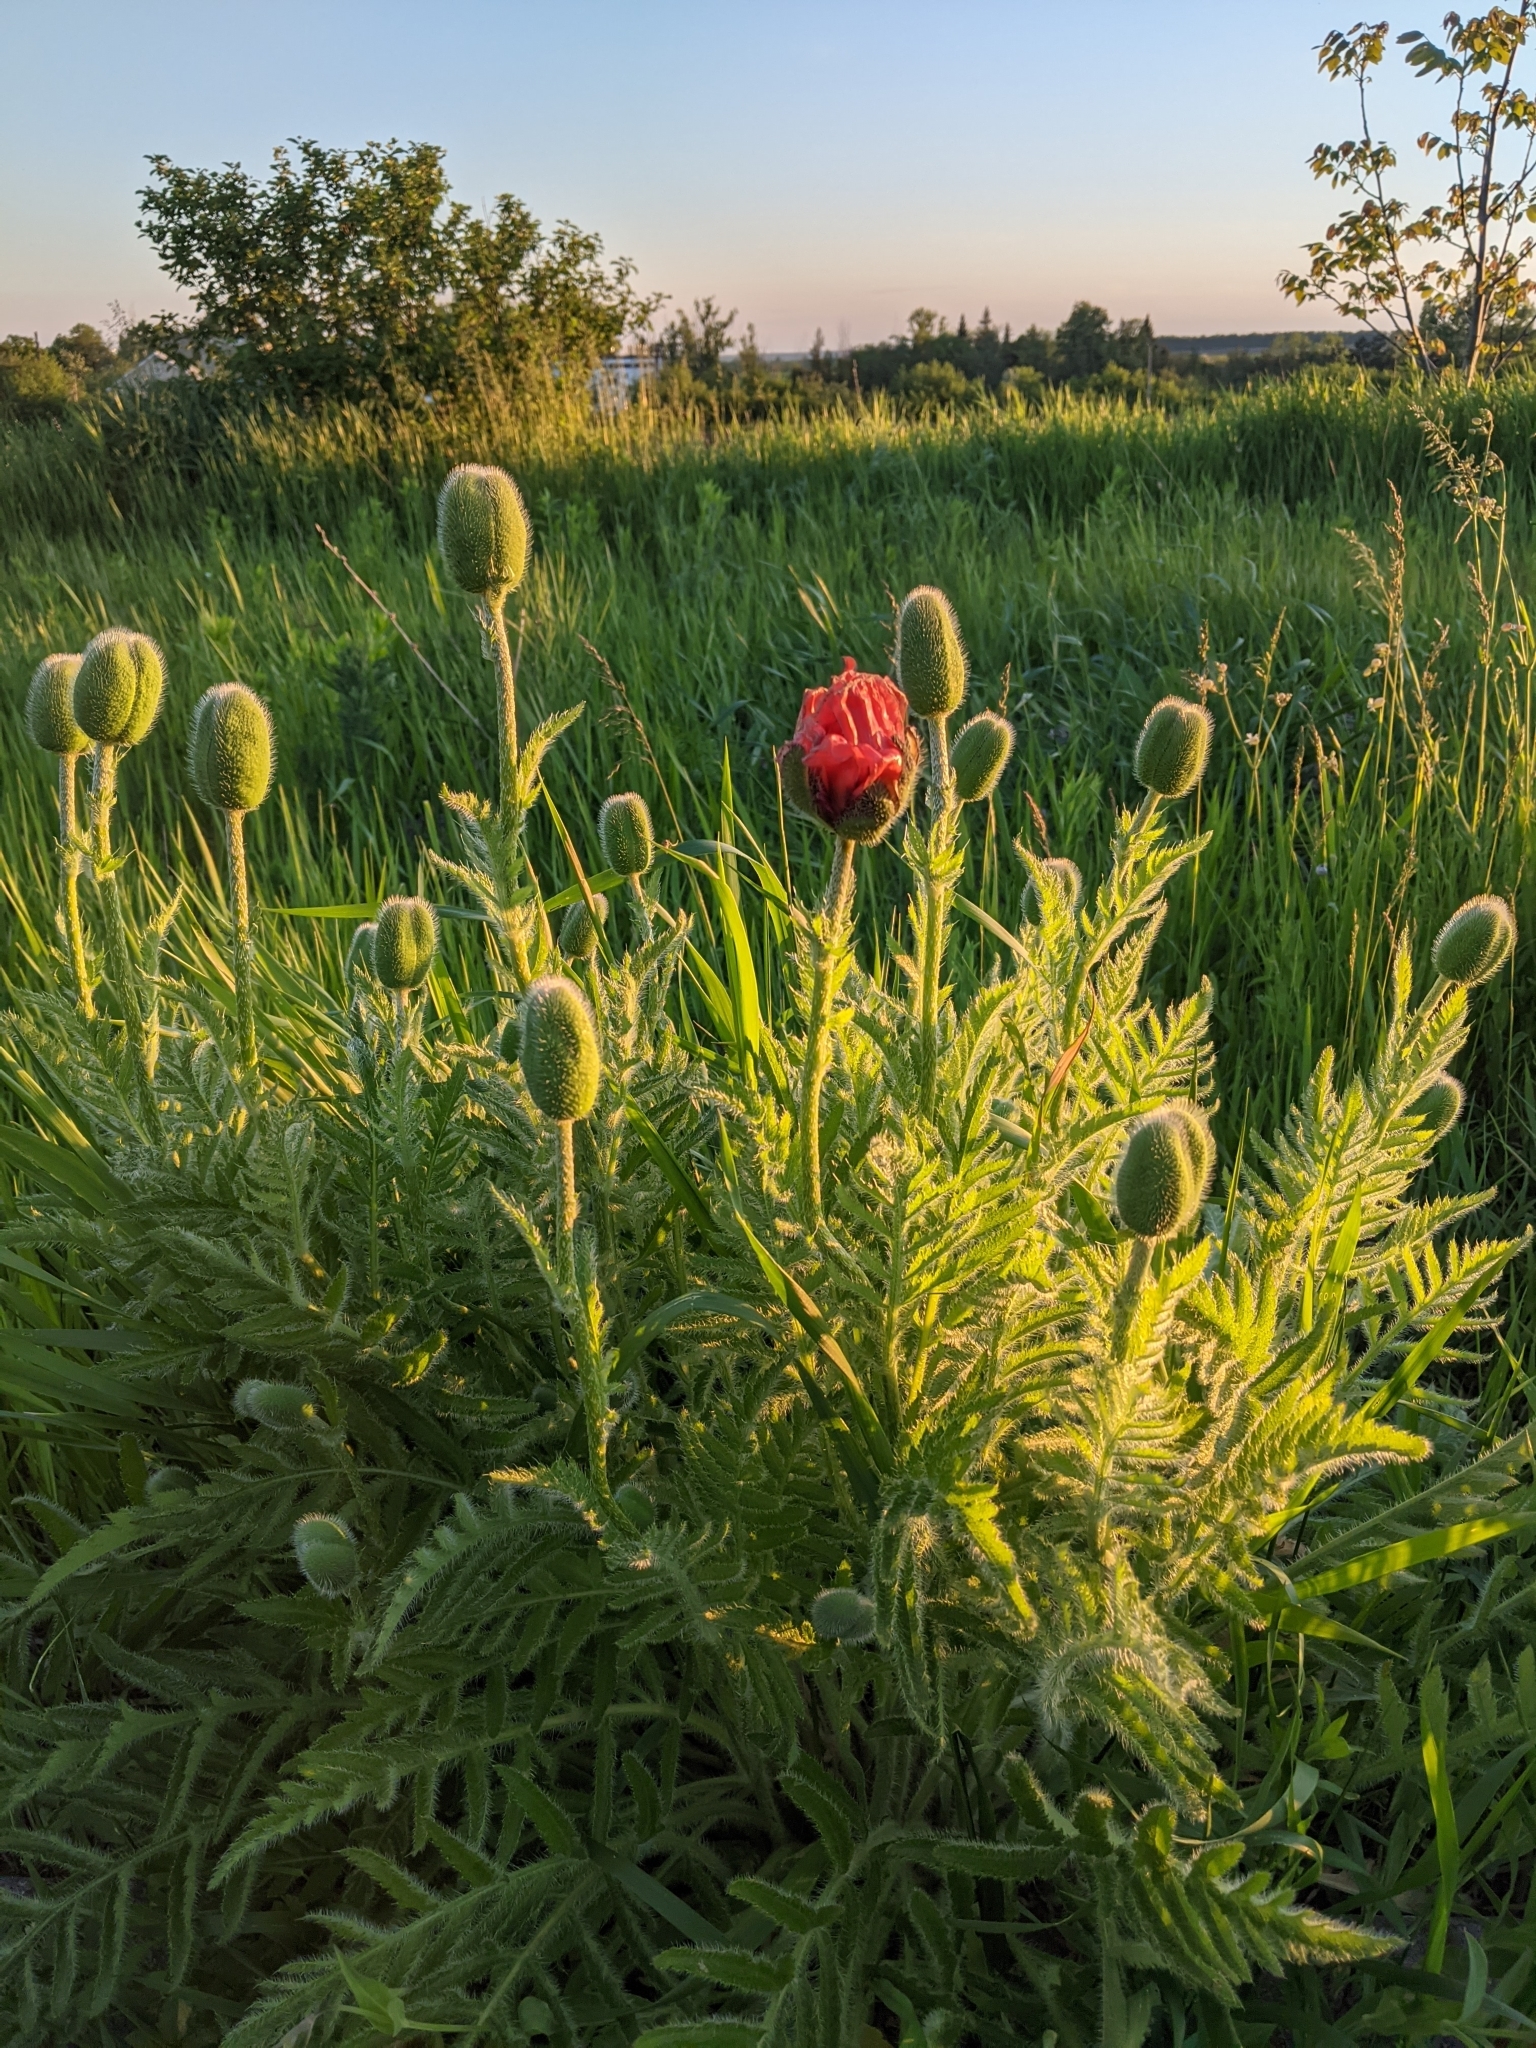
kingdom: Plantae
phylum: Tracheophyta
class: Magnoliopsida
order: Ranunculales
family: Papaveraceae
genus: Papaver
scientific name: Papaver orientale
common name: Oriental poppy
